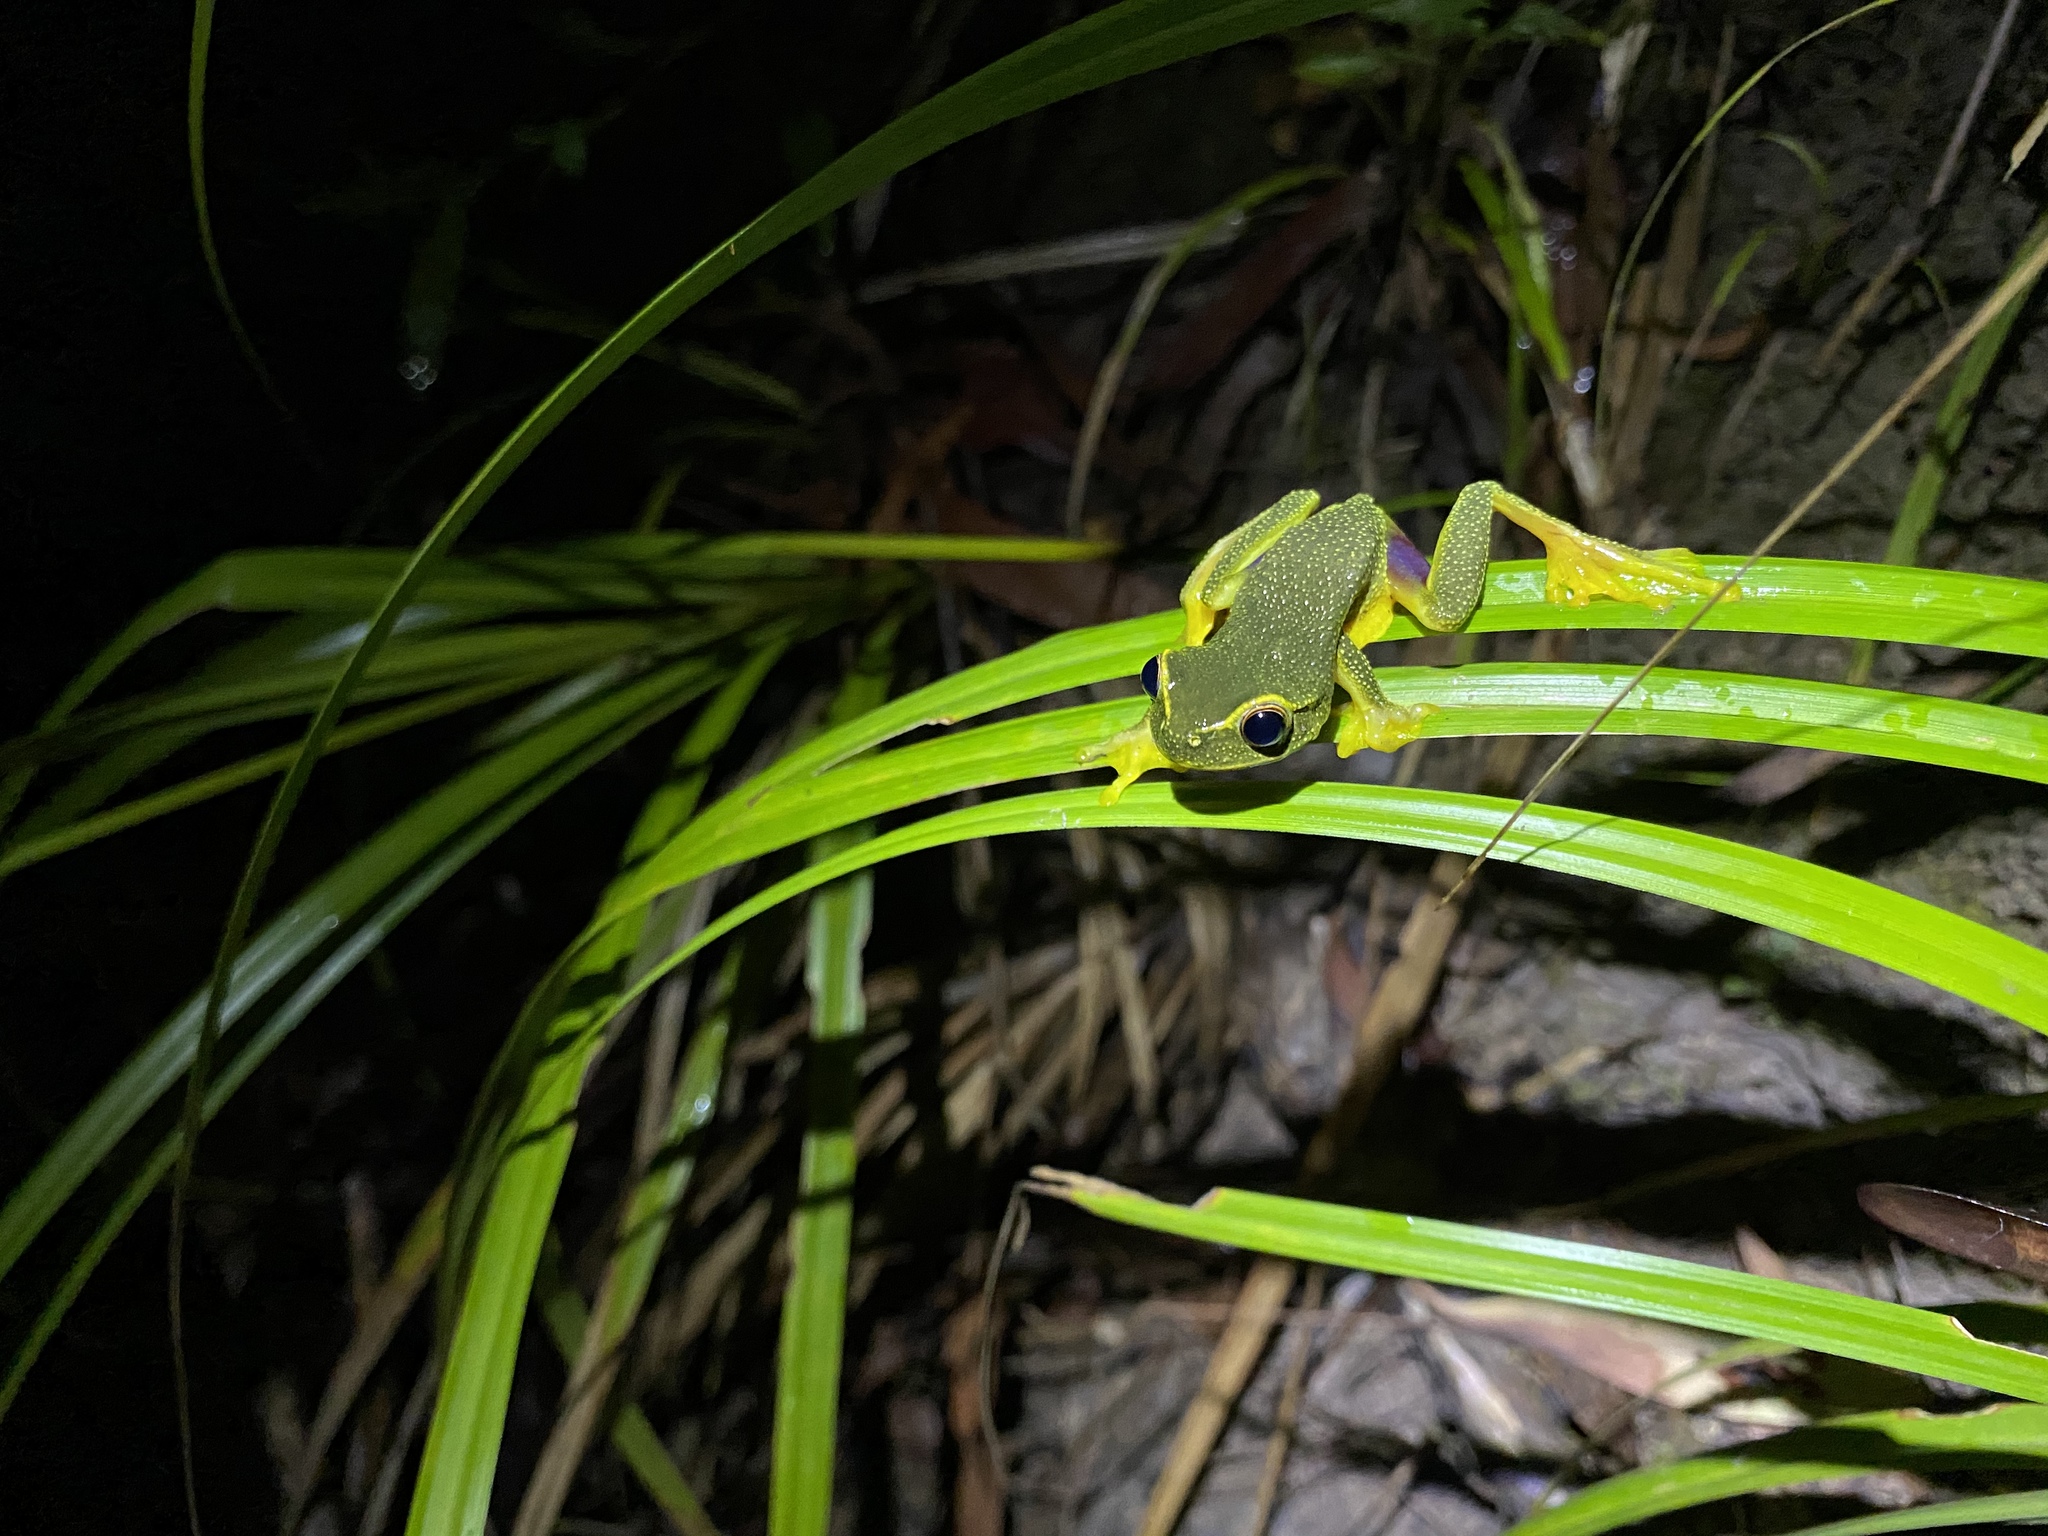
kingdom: Animalia
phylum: Chordata
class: Amphibia
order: Anura
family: Pelodryadidae
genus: Ranoidea
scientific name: Ranoidea gracilenta
